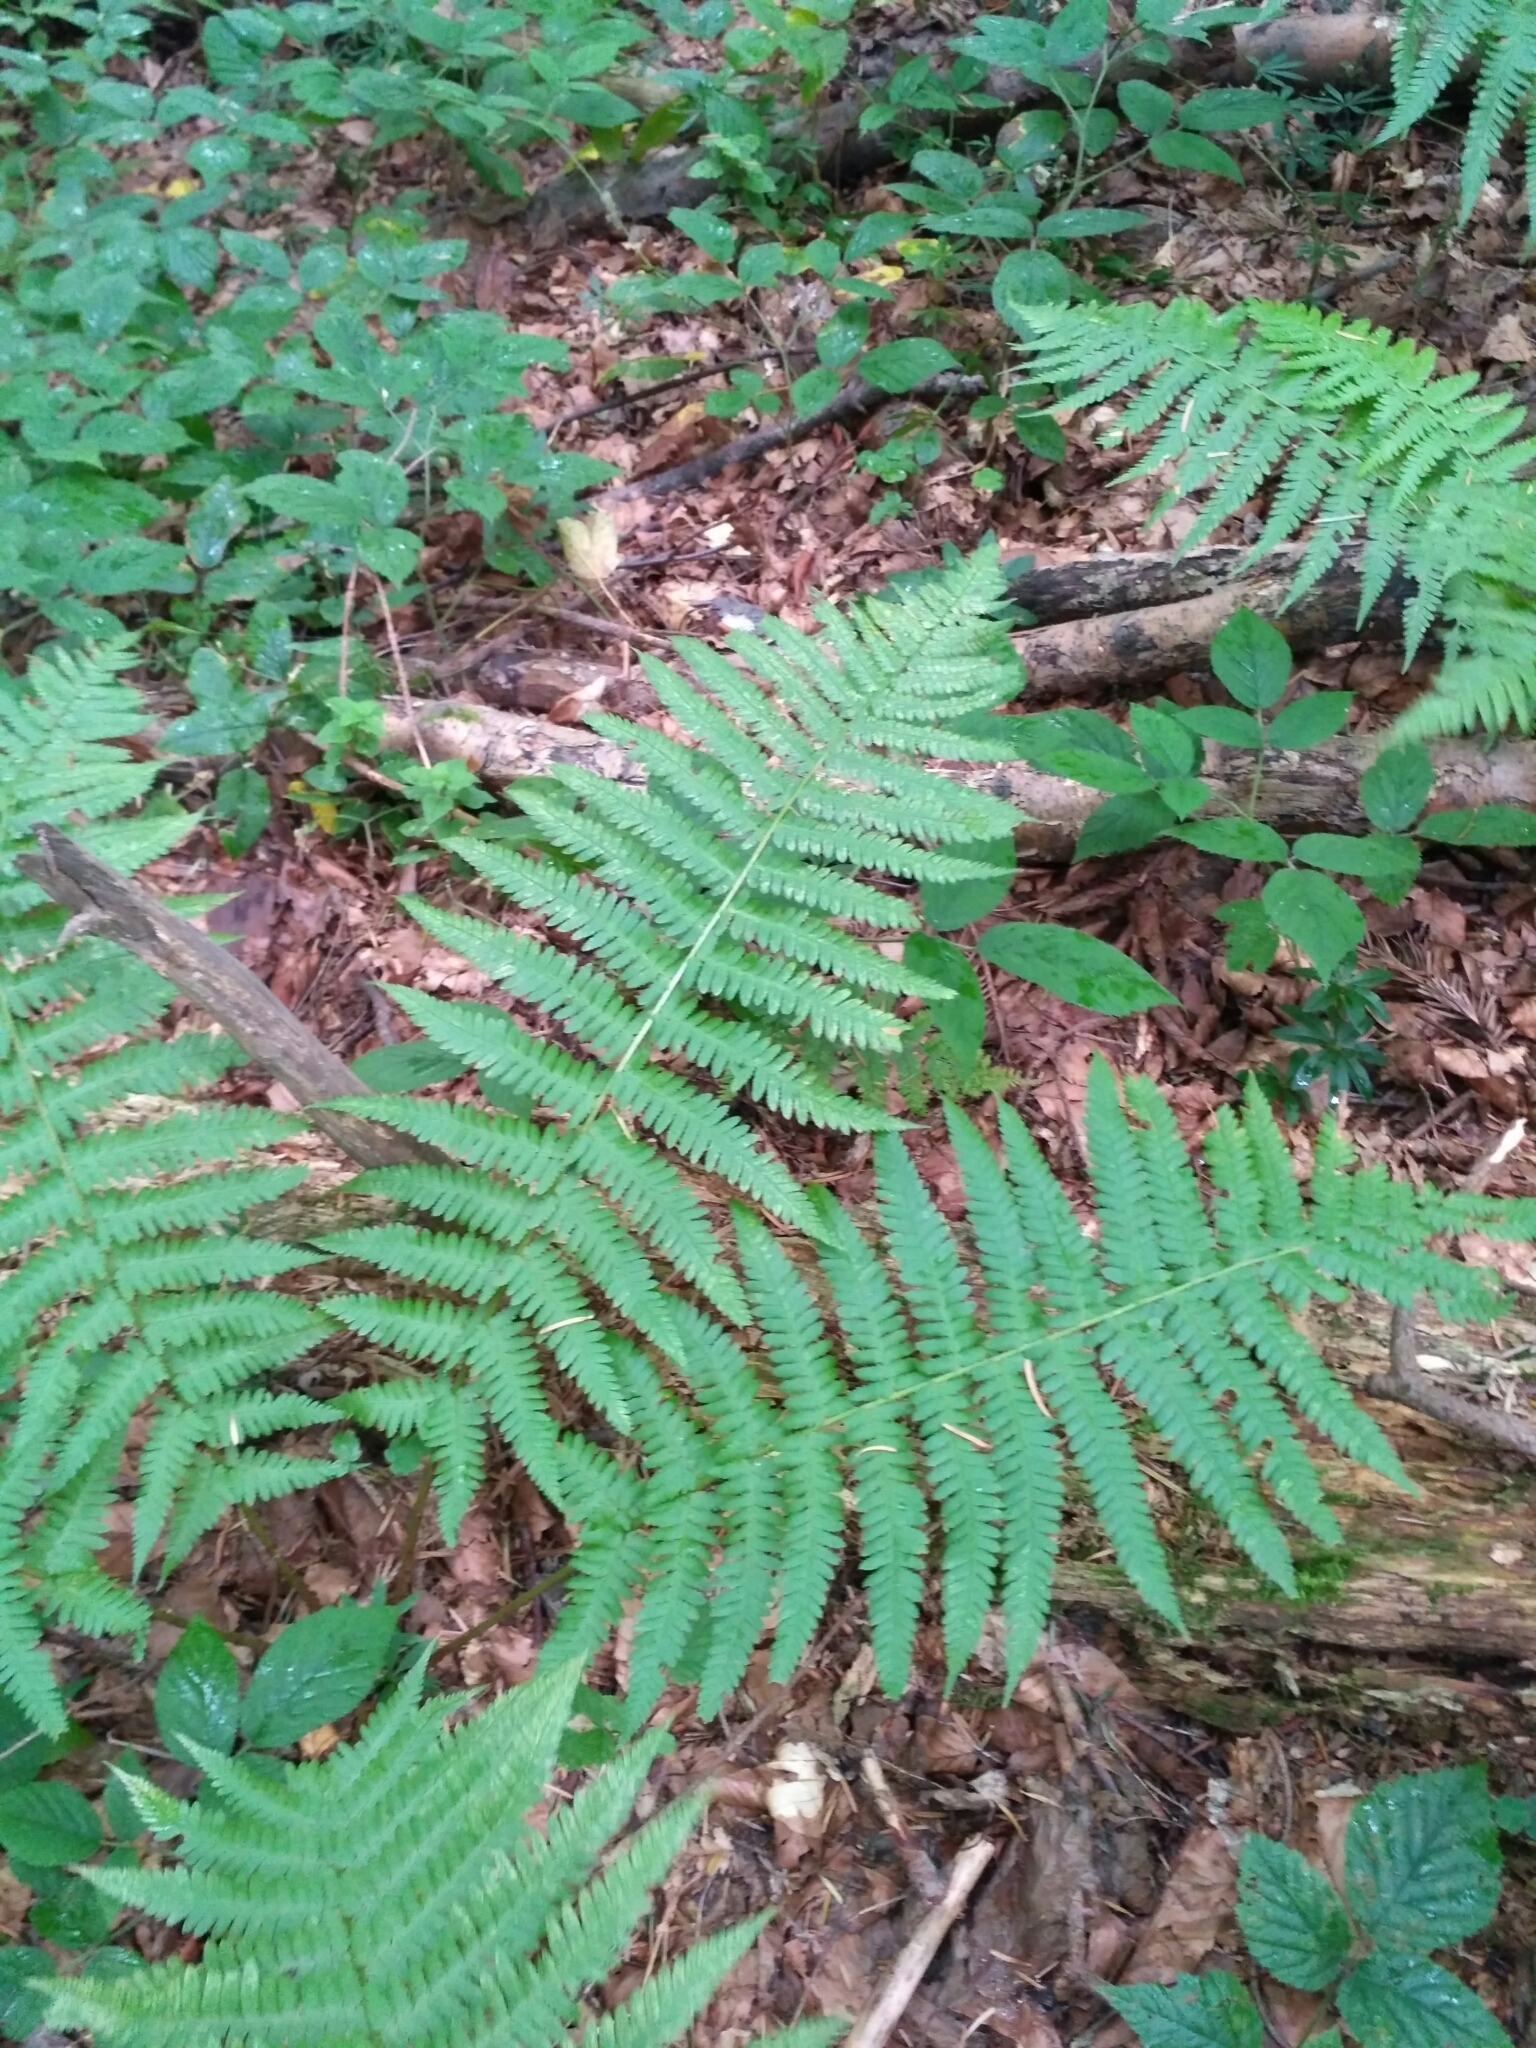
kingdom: Plantae
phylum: Tracheophyta
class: Polypodiopsida
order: Polypodiales
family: Dryopteridaceae
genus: Dryopteris
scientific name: Dryopteris filix-mas
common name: Male fern
